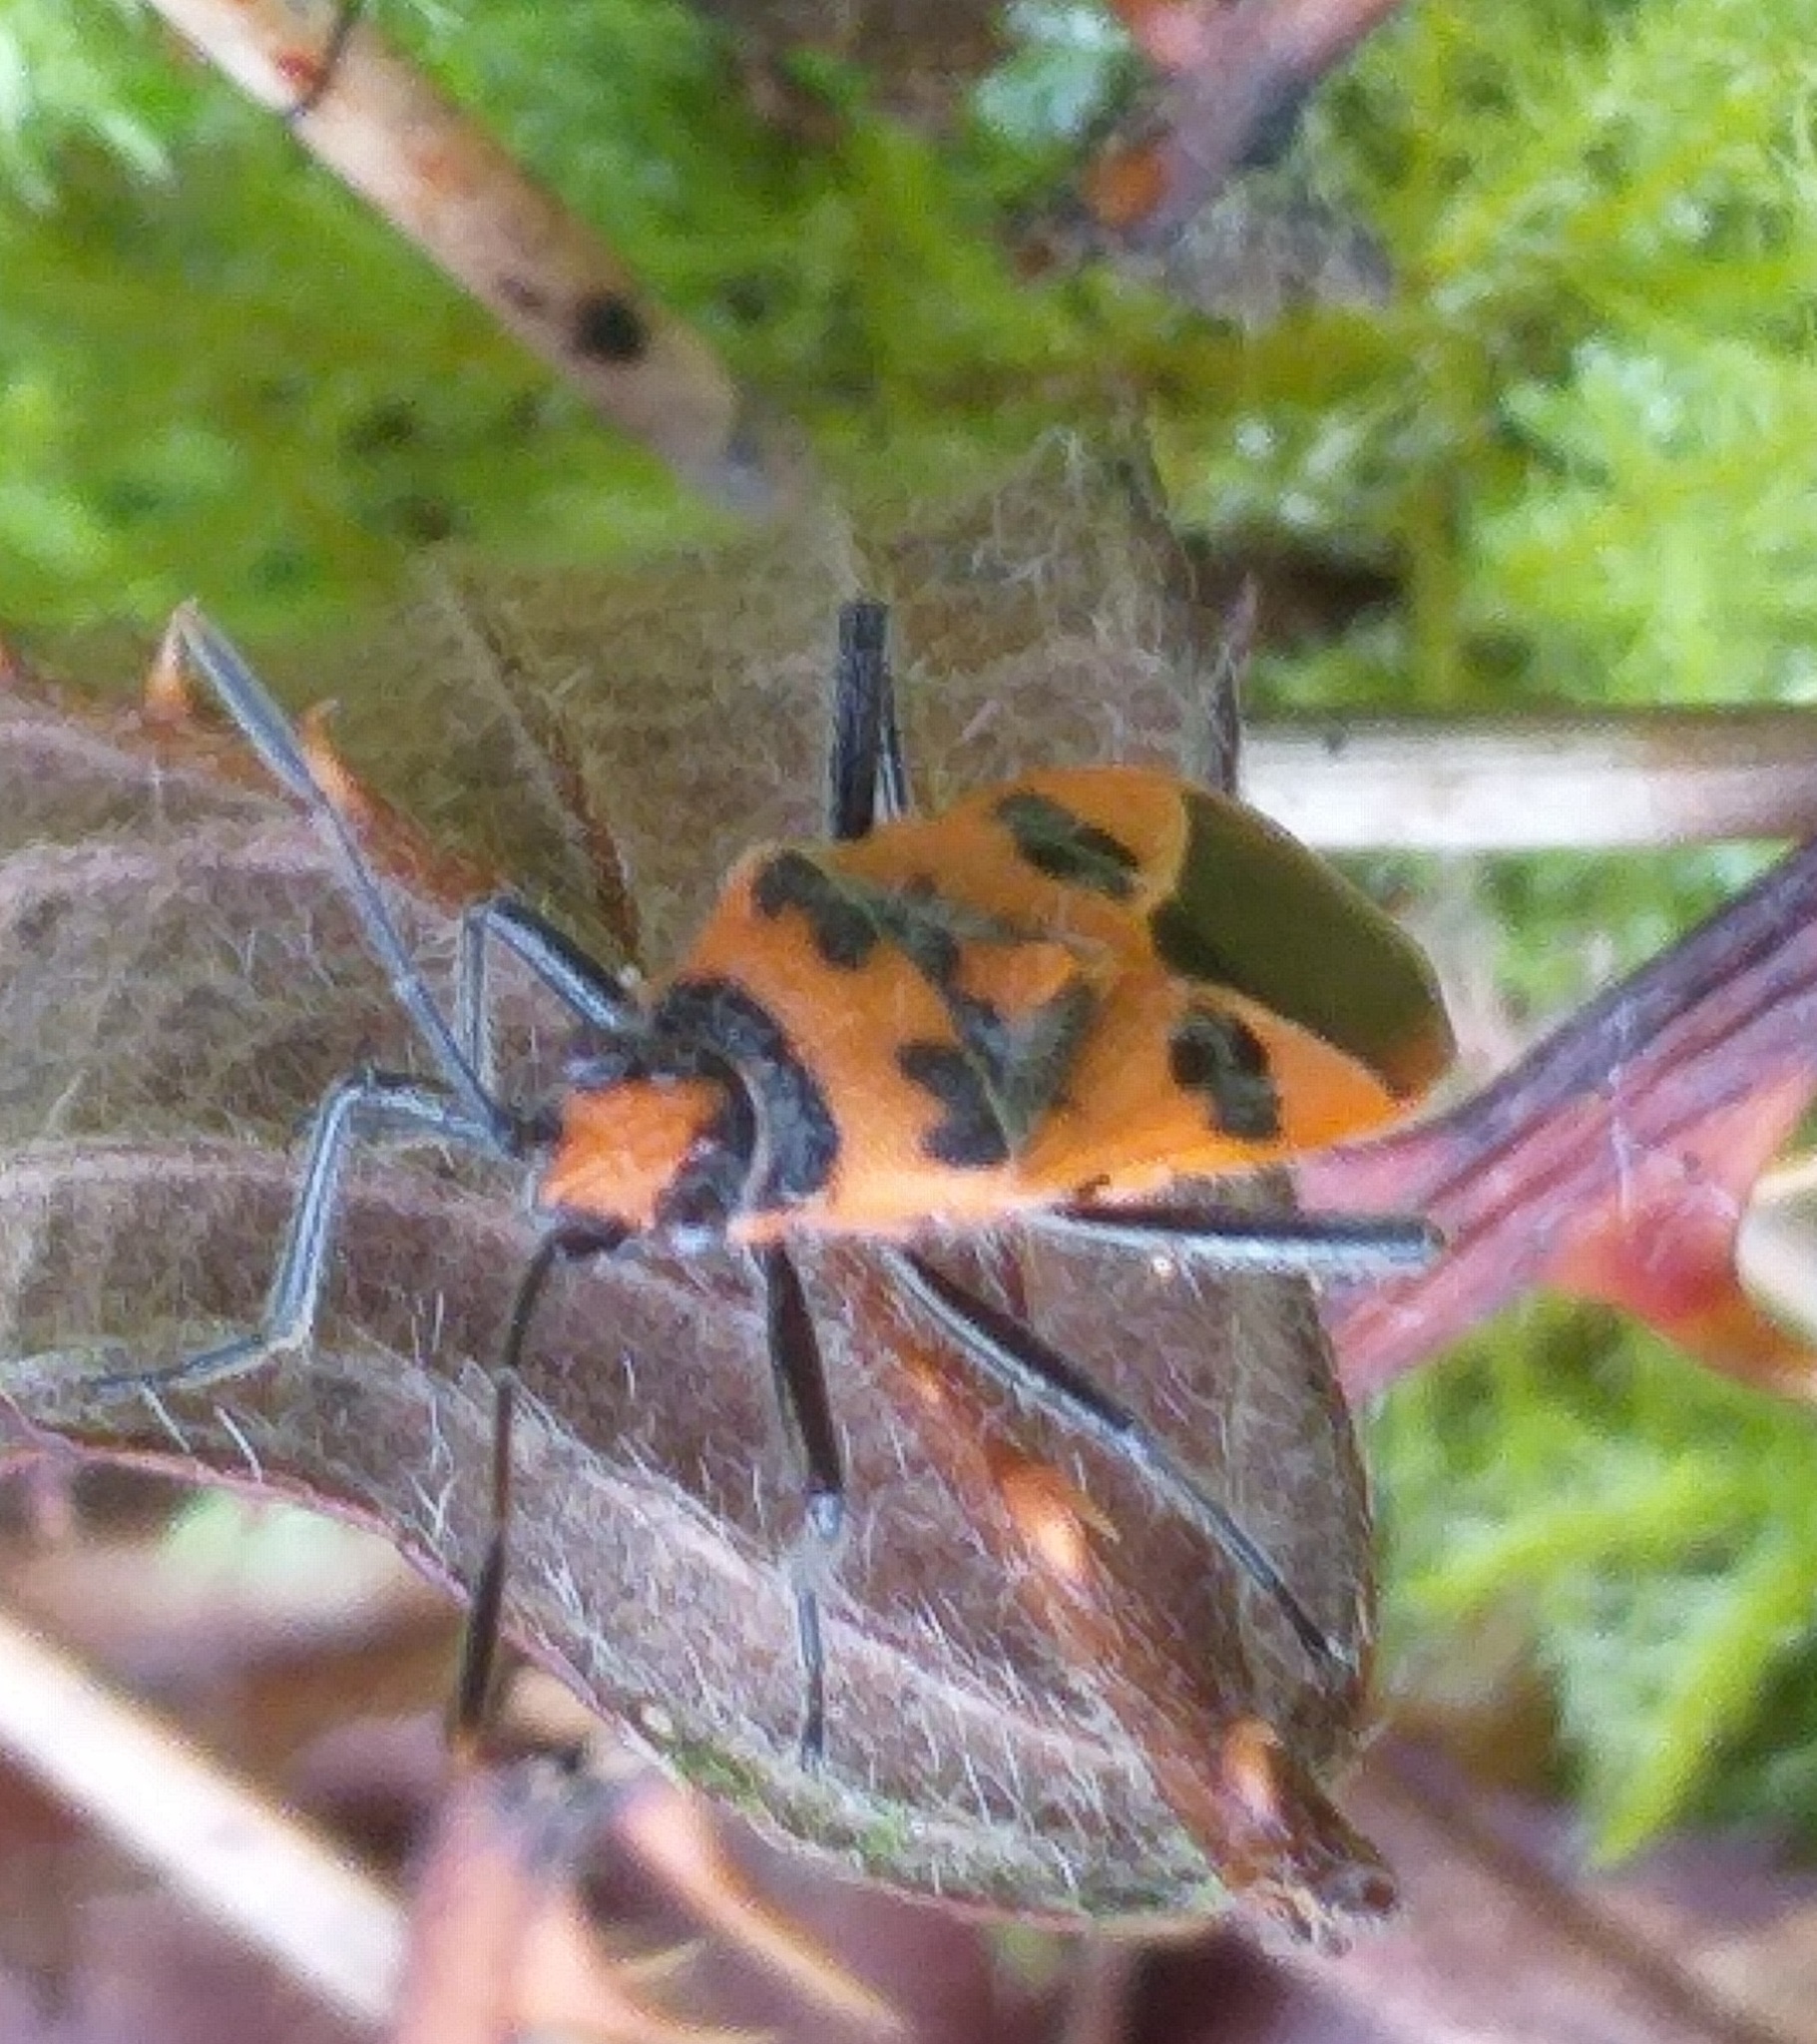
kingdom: Animalia
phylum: Arthropoda
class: Insecta
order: Hemiptera
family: Rhopalidae
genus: Corizus
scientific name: Corizus hyoscyami
